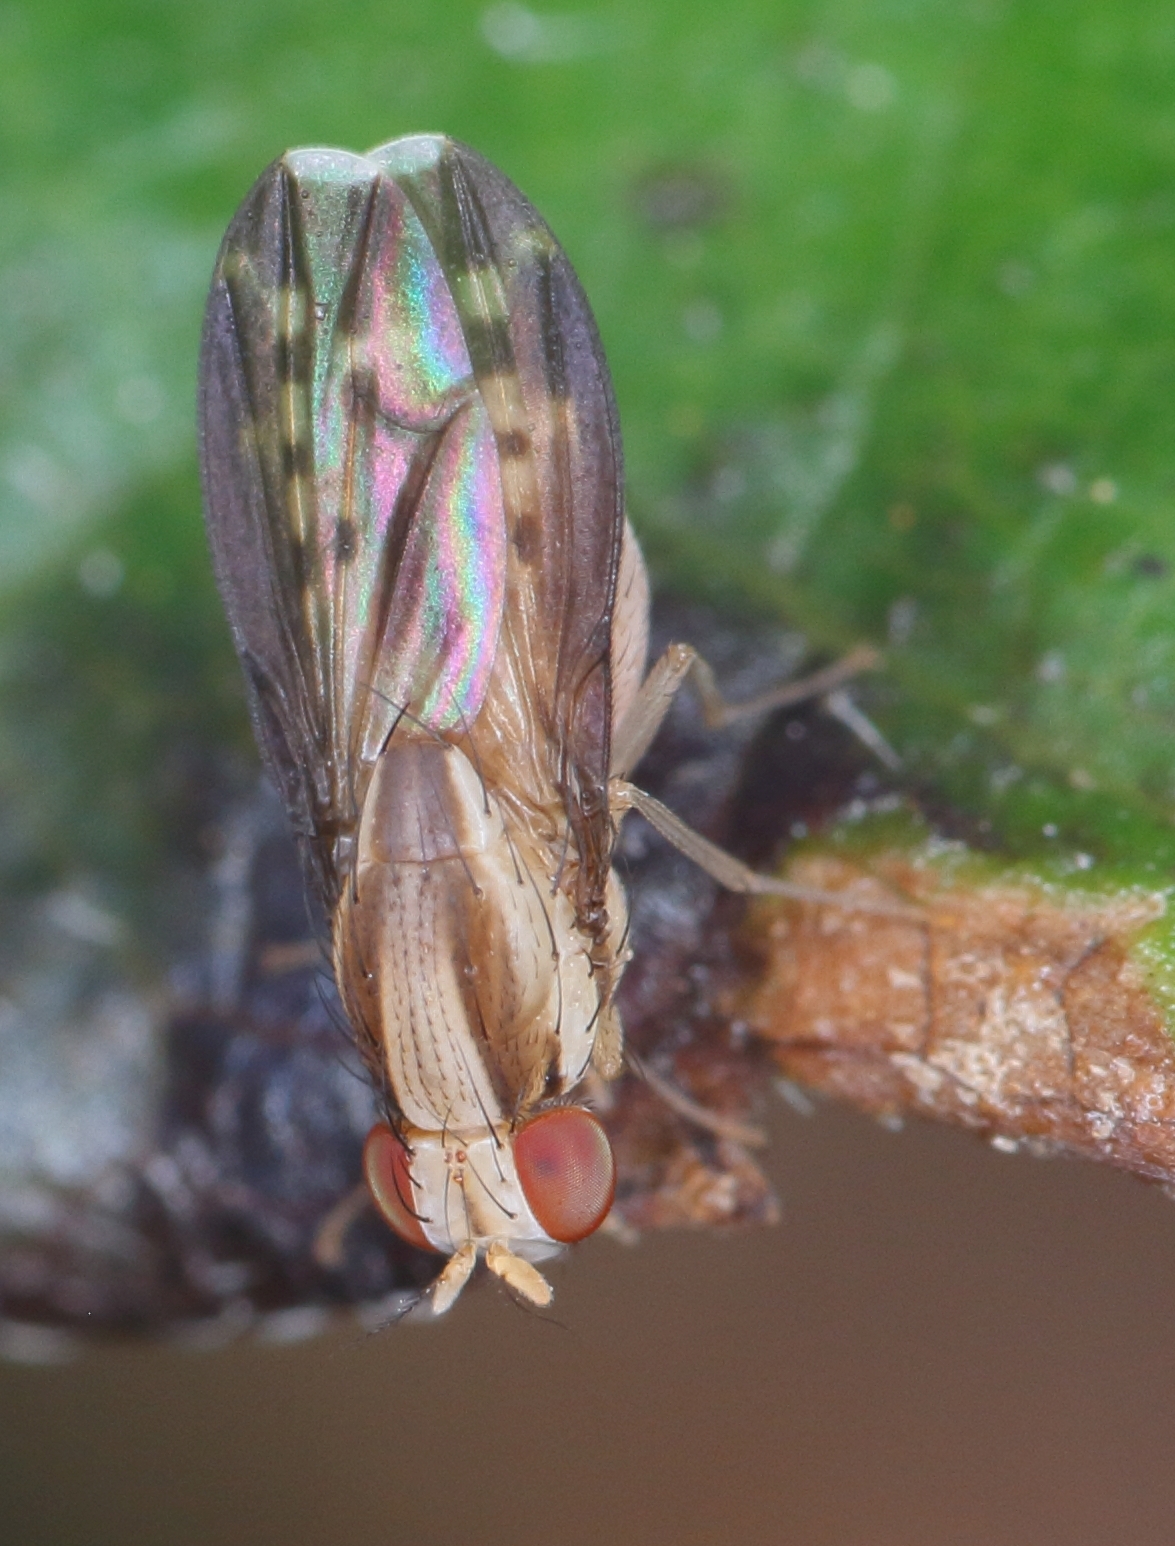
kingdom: Animalia
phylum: Arthropoda
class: Insecta
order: Diptera
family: Lauxaniidae
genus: Homoneura
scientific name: Homoneura terminalis
